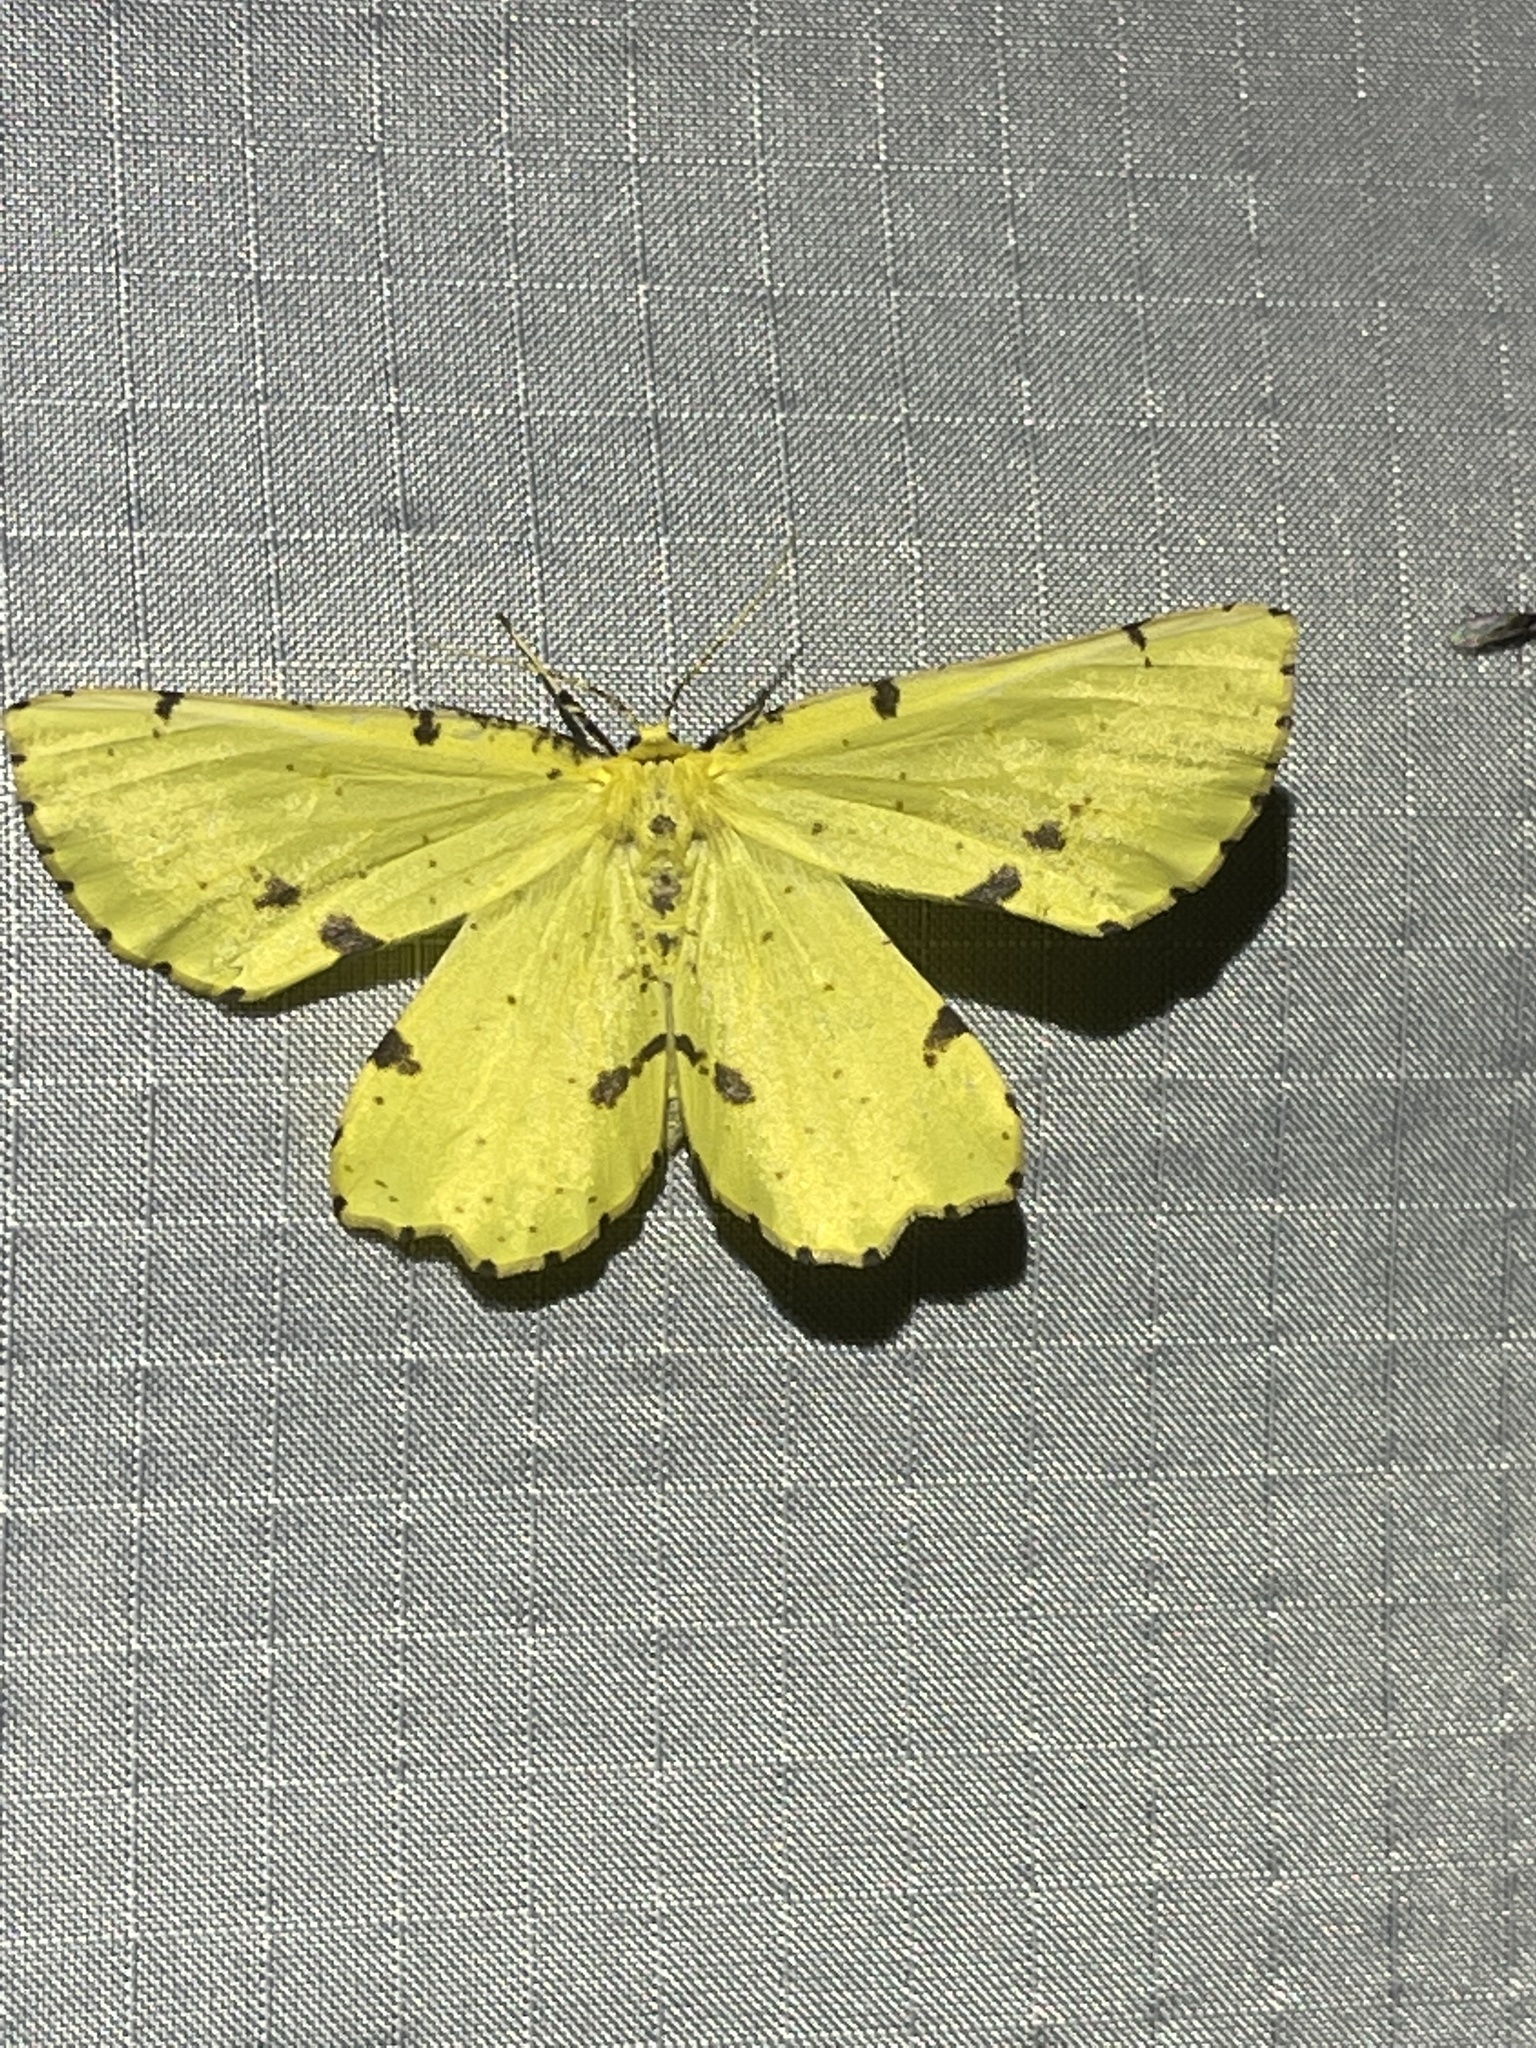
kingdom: Animalia
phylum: Arthropoda
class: Insecta
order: Lepidoptera
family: Geometridae
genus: Xanthotype
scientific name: Xanthotype
